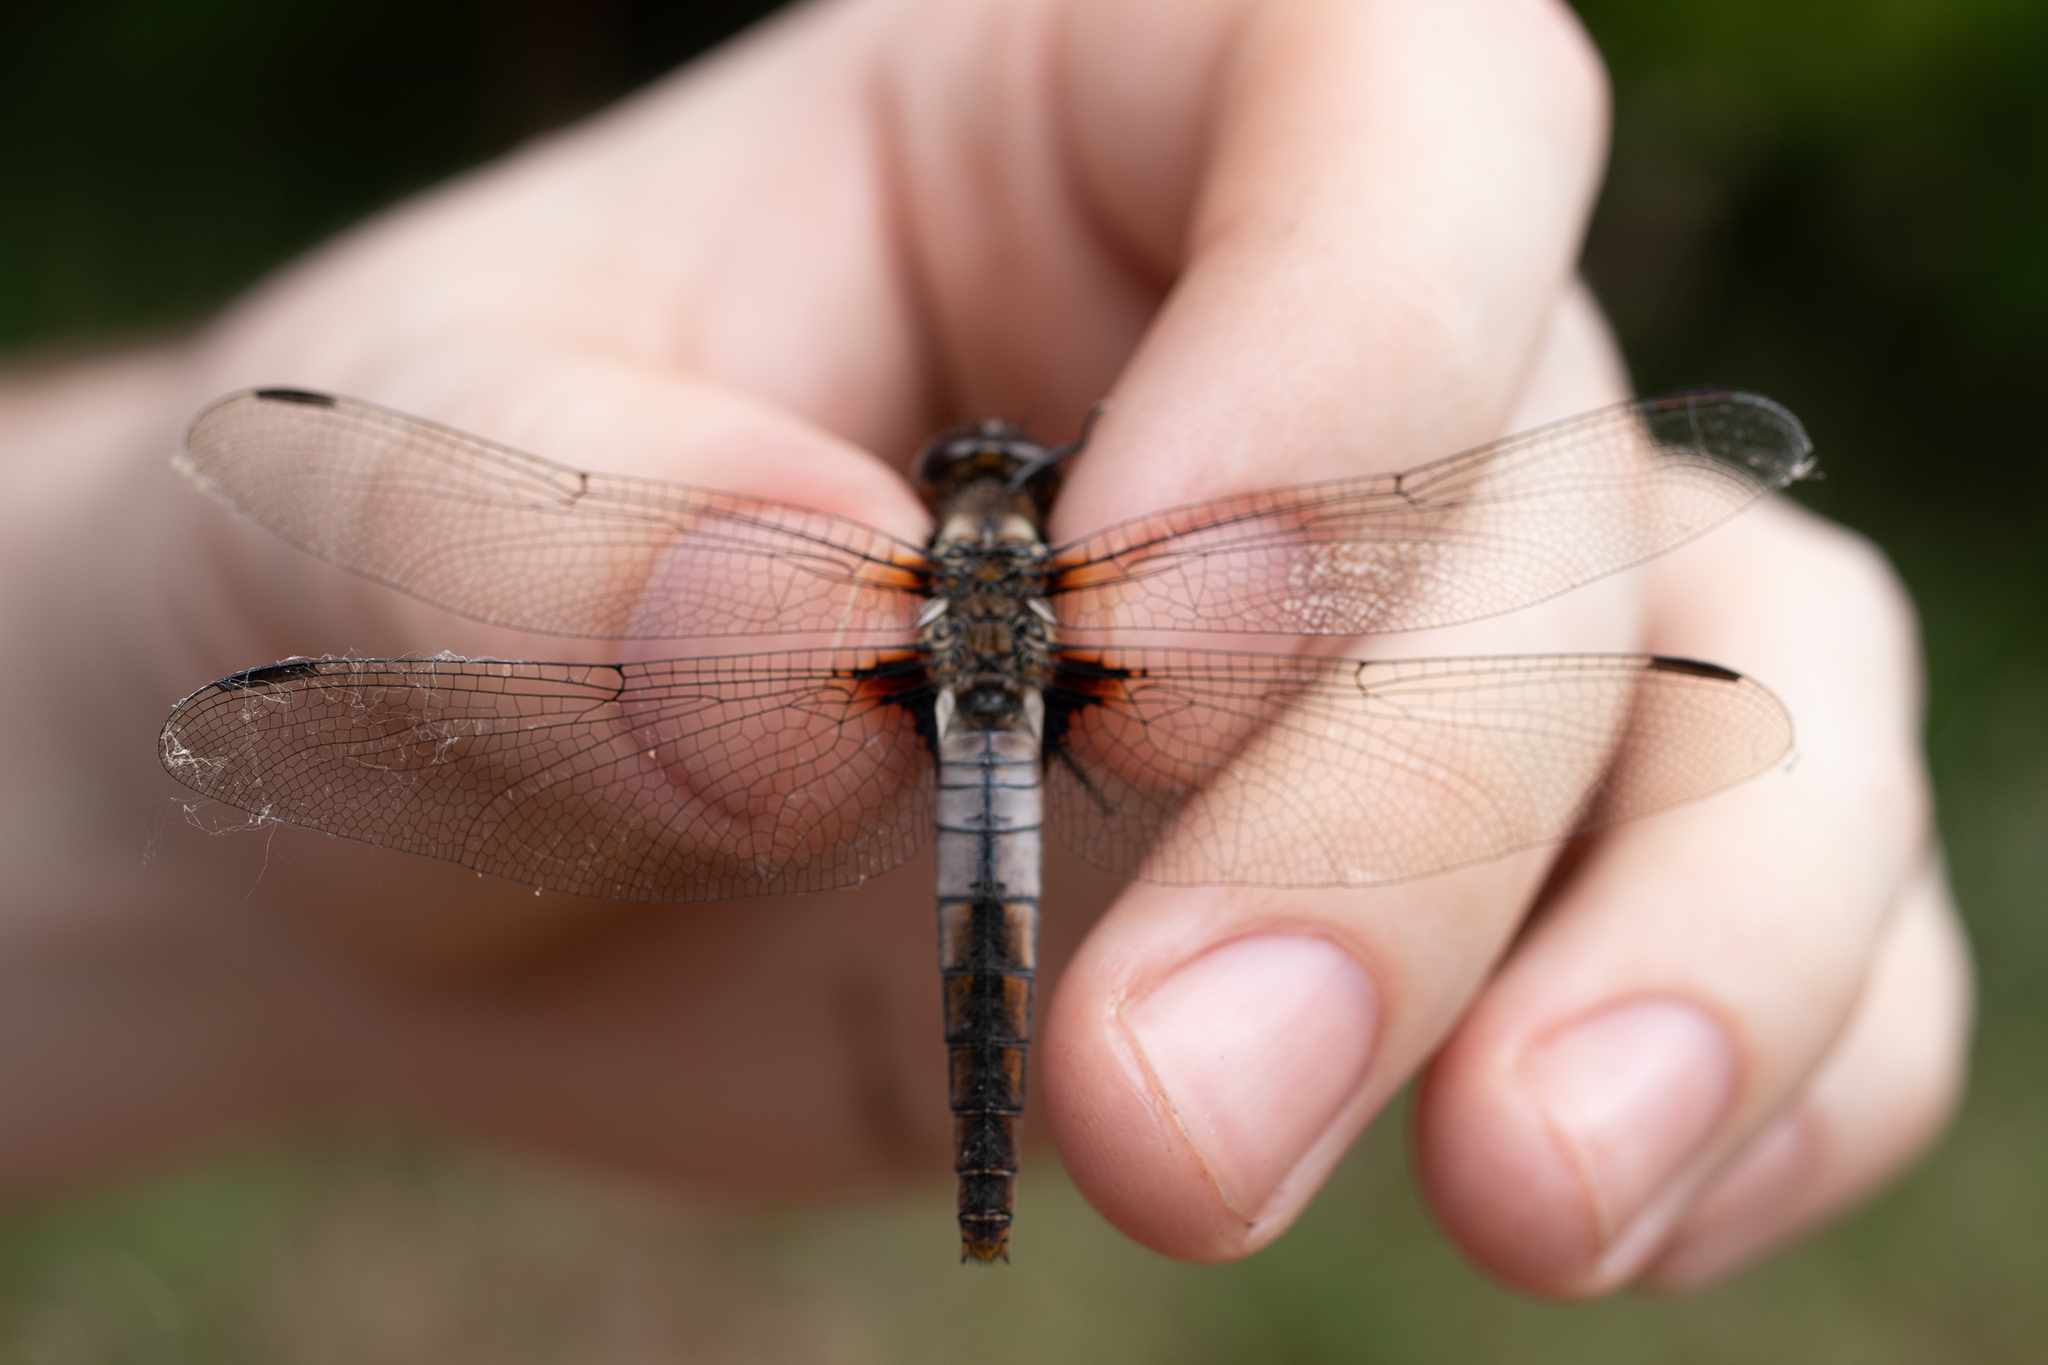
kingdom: Animalia
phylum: Arthropoda
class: Insecta
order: Odonata
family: Libellulidae
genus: Ladona
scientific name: Ladona julia
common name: Chalk-fronted corporal
